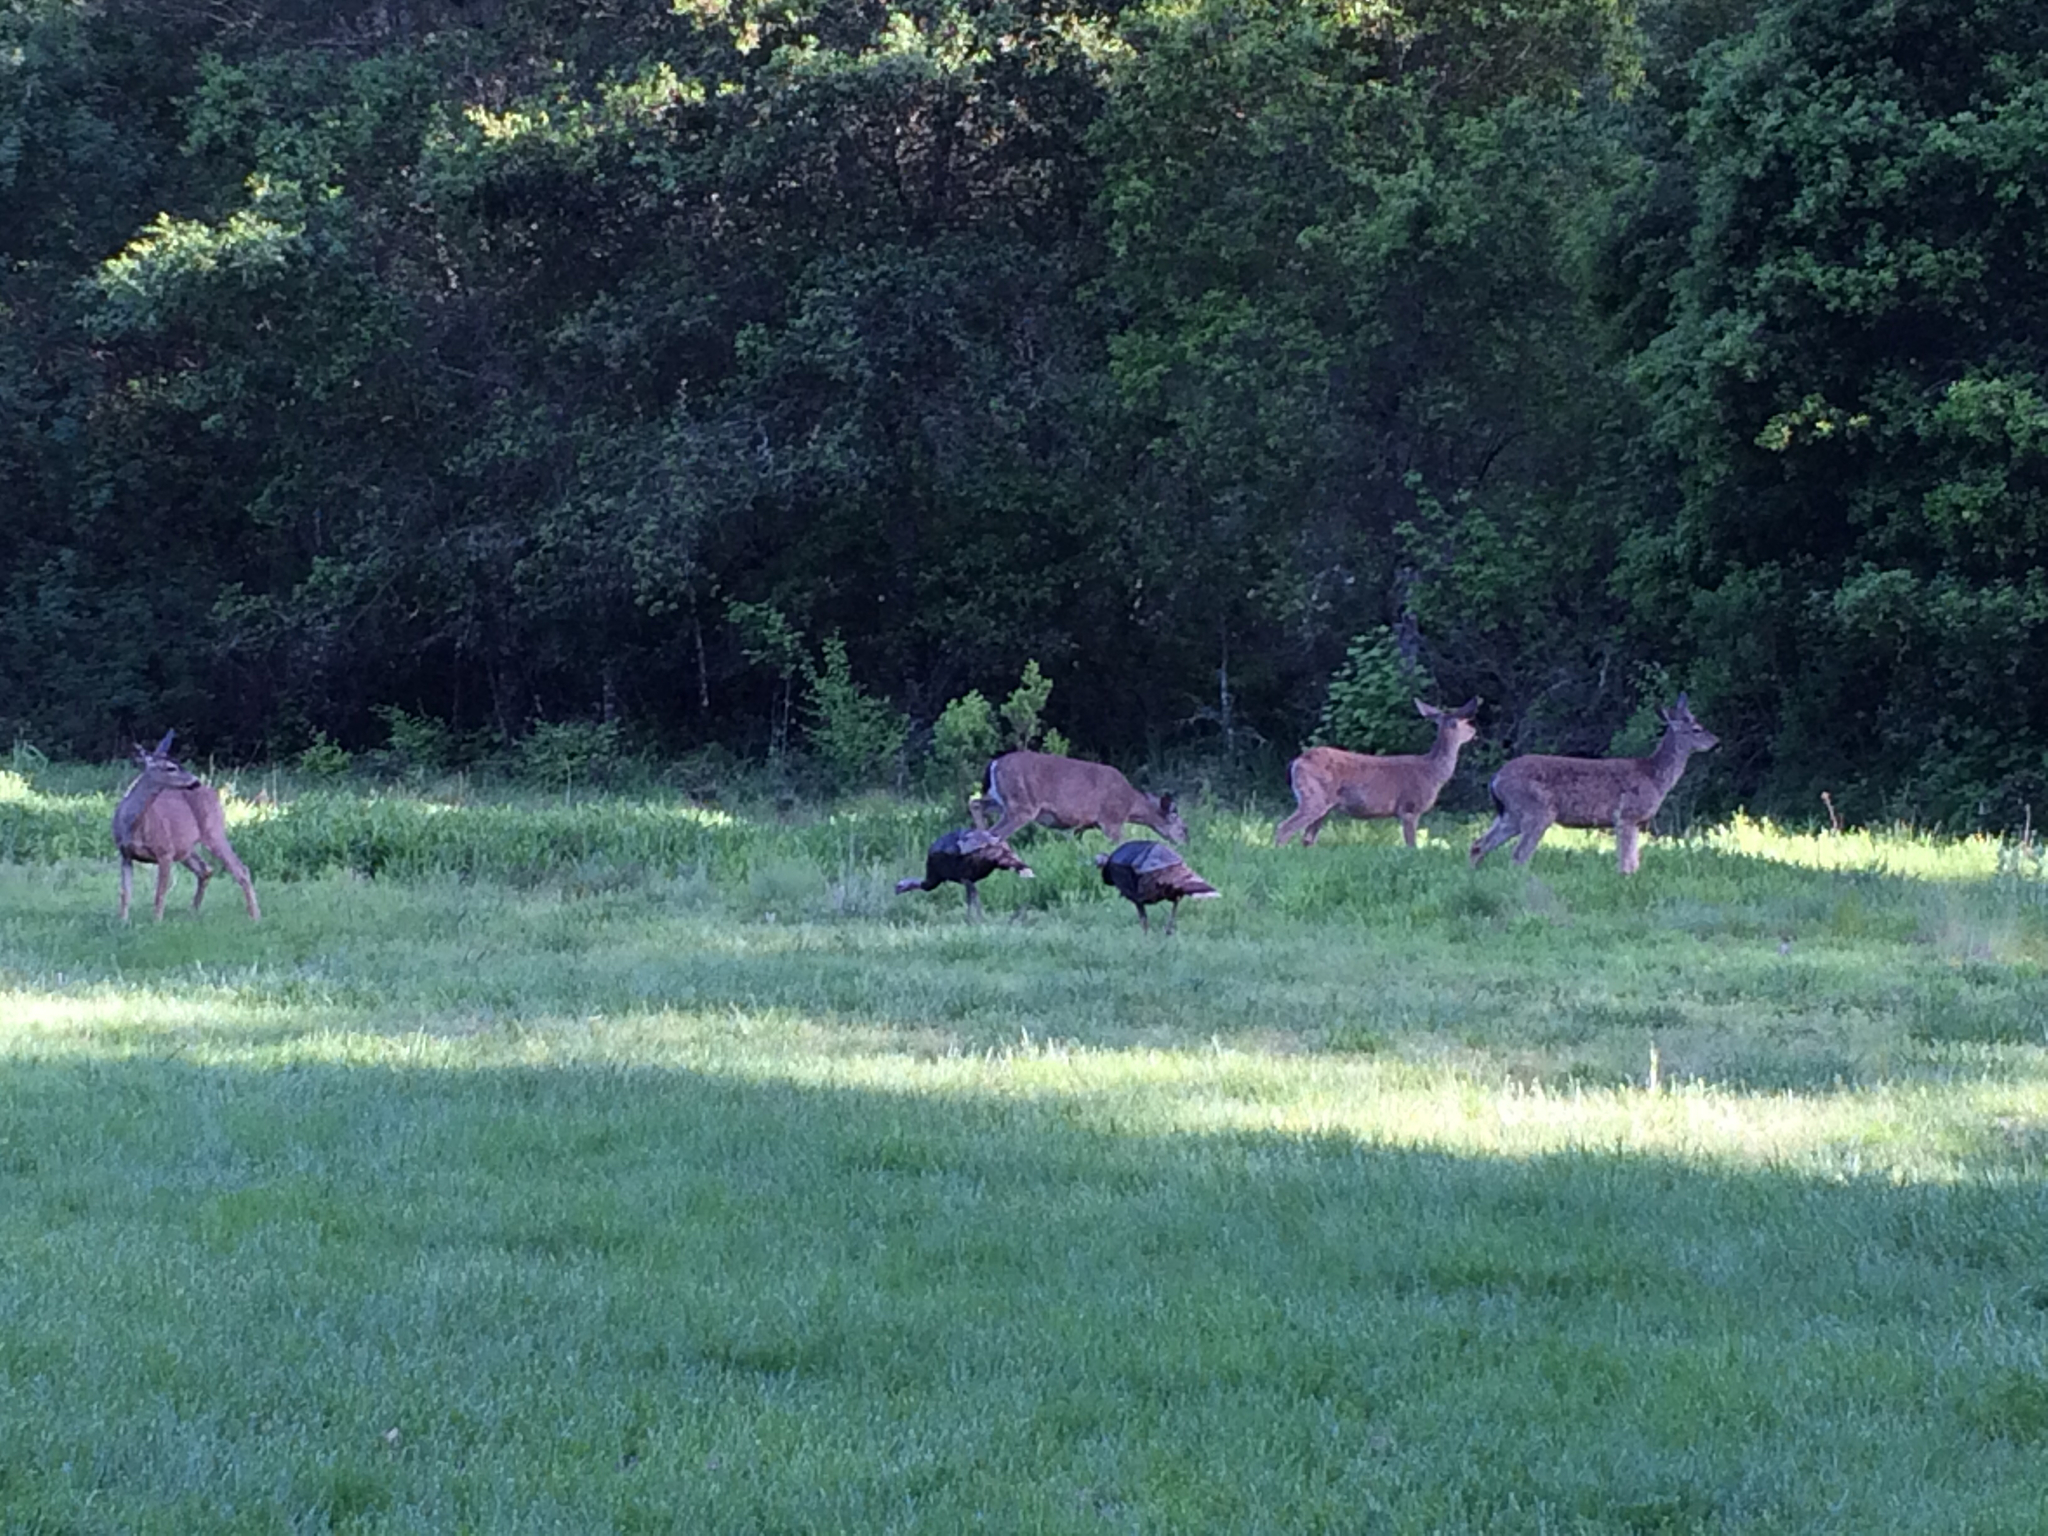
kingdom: Animalia
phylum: Chordata
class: Mammalia
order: Artiodactyla
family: Cervidae
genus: Odocoileus
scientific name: Odocoileus hemionus
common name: Mule deer
